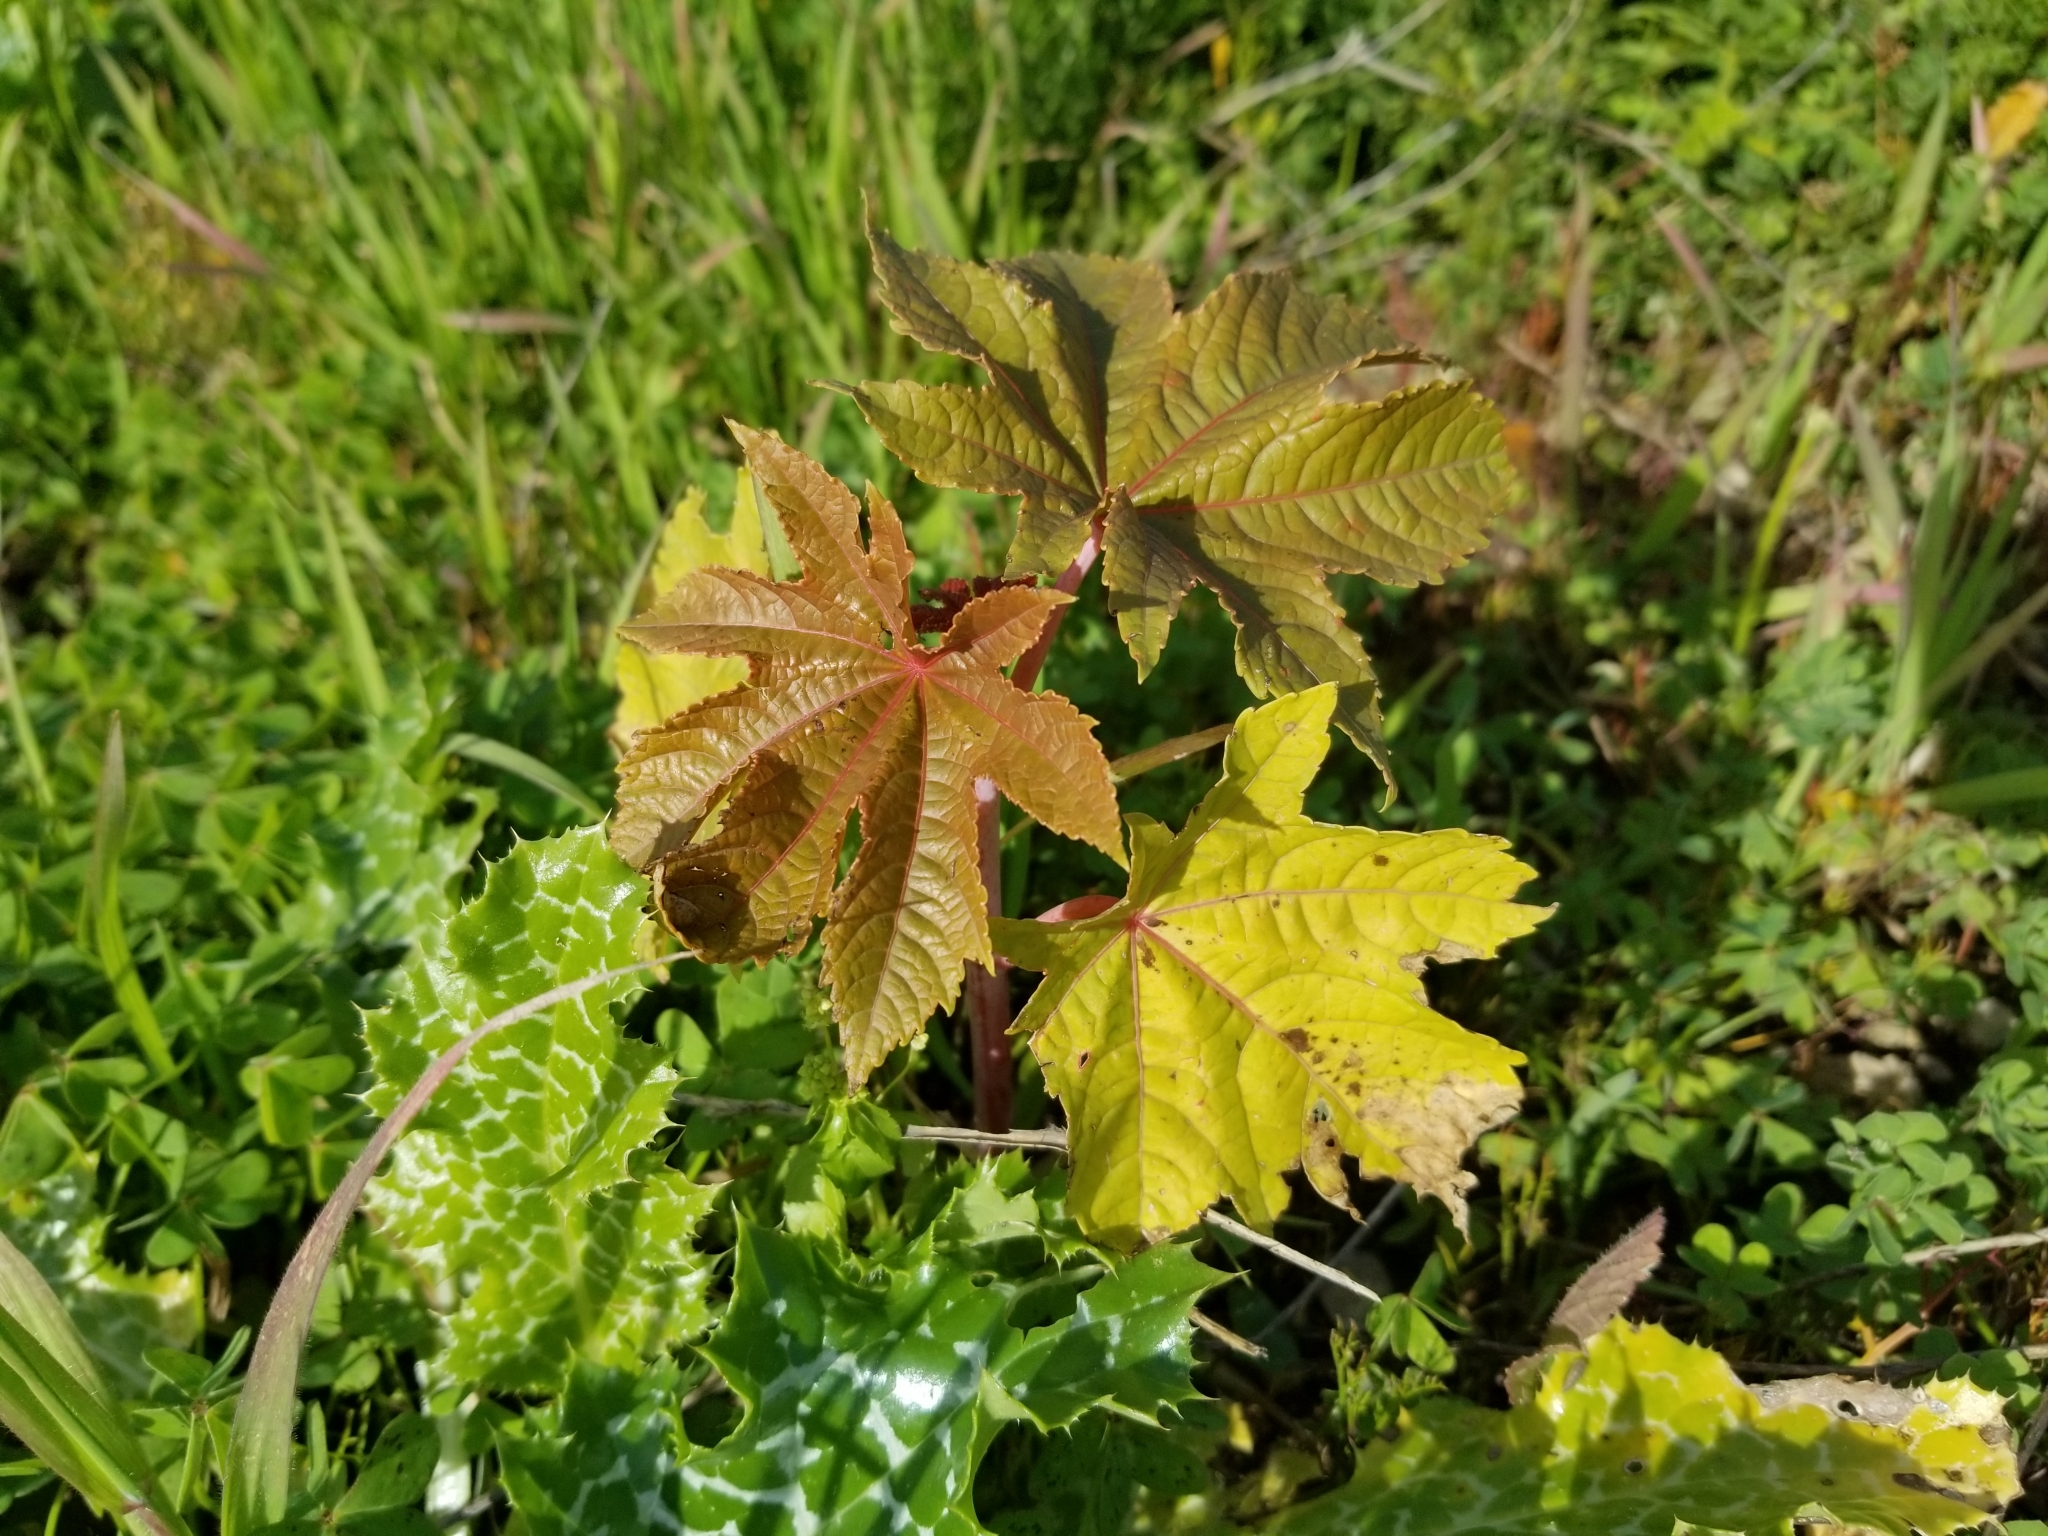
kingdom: Plantae
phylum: Tracheophyta
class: Magnoliopsida
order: Malpighiales
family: Euphorbiaceae
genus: Ricinus
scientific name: Ricinus communis
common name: Castor-oil-plant
